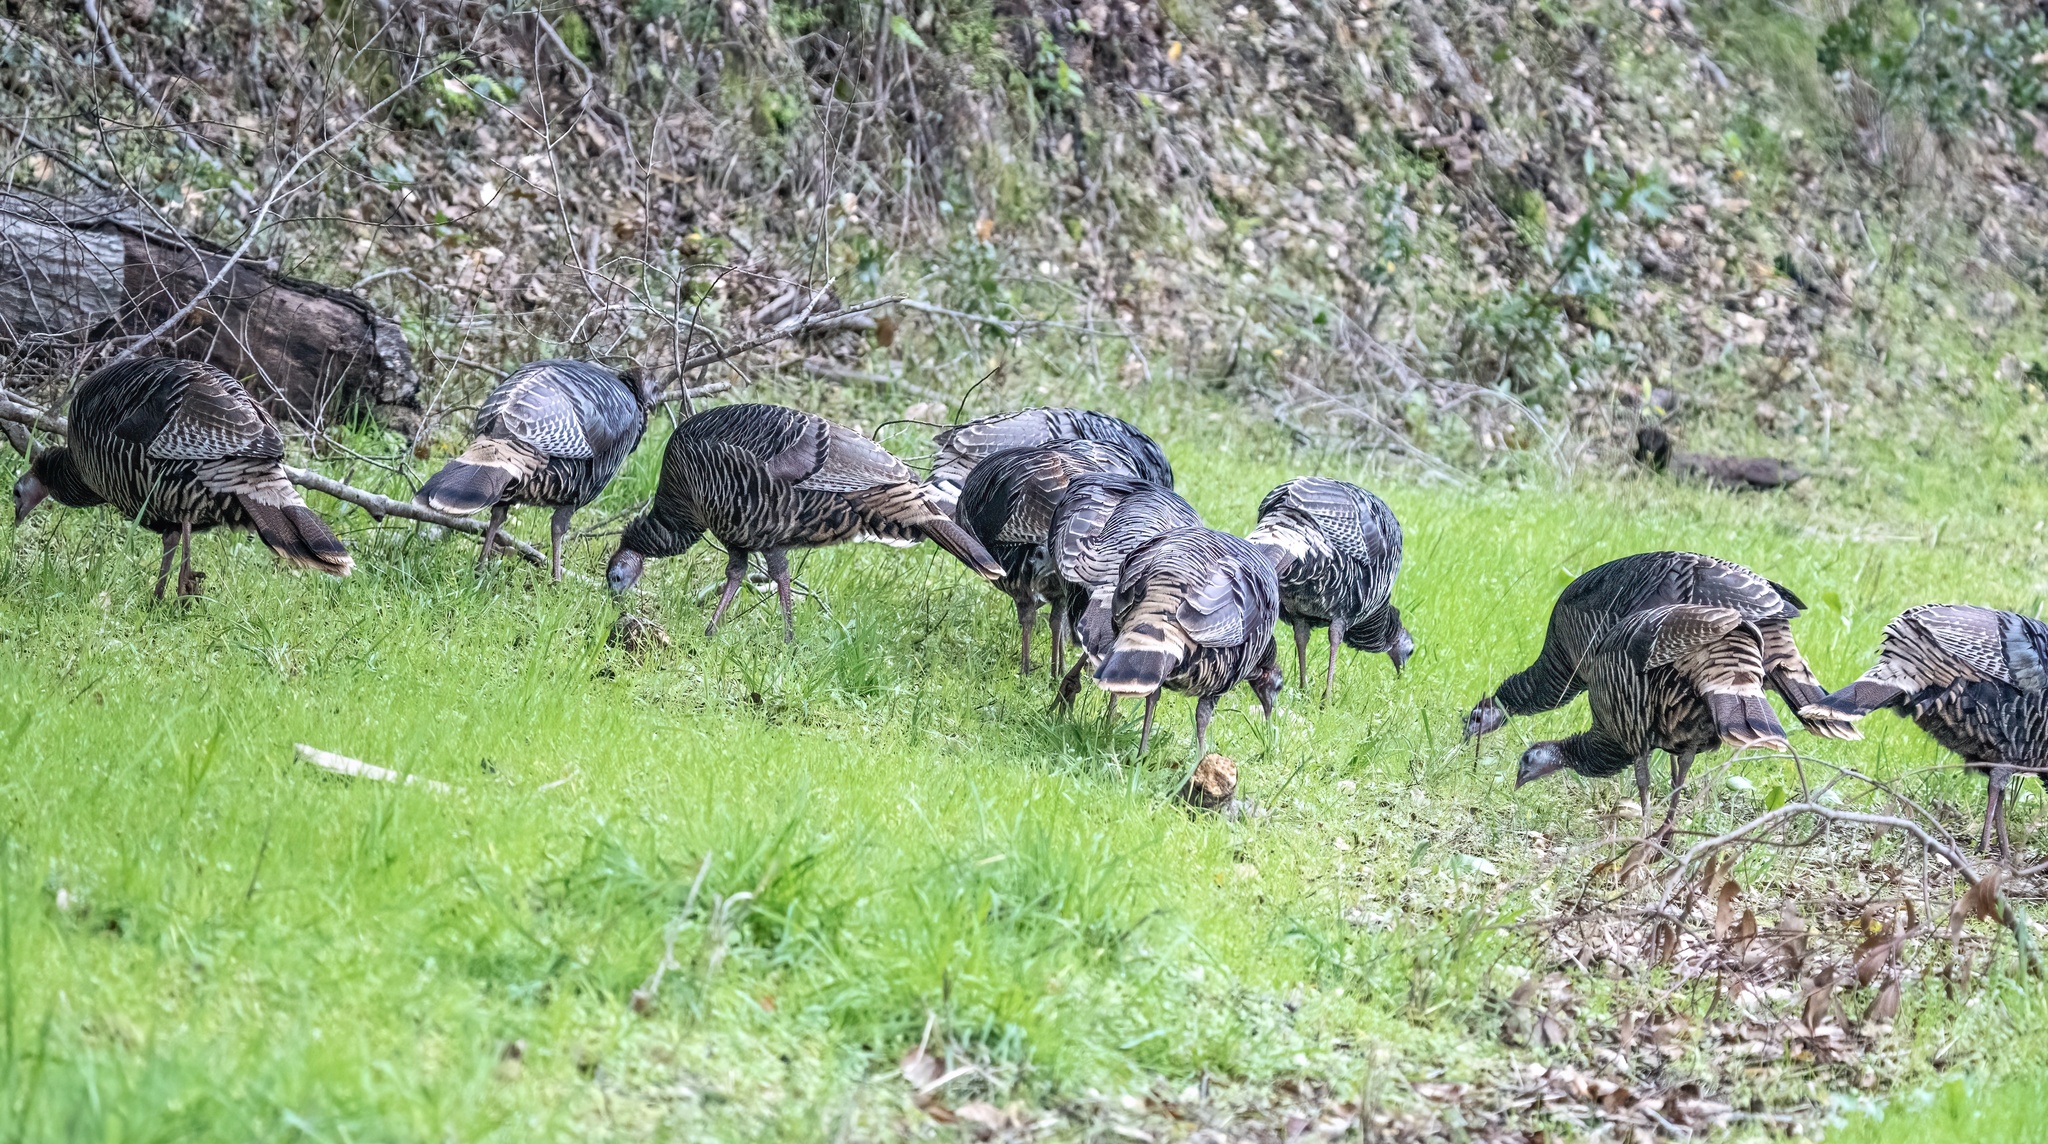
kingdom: Animalia
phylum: Chordata
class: Aves
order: Galliformes
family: Phasianidae
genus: Meleagris
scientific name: Meleagris gallopavo
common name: Wild turkey
